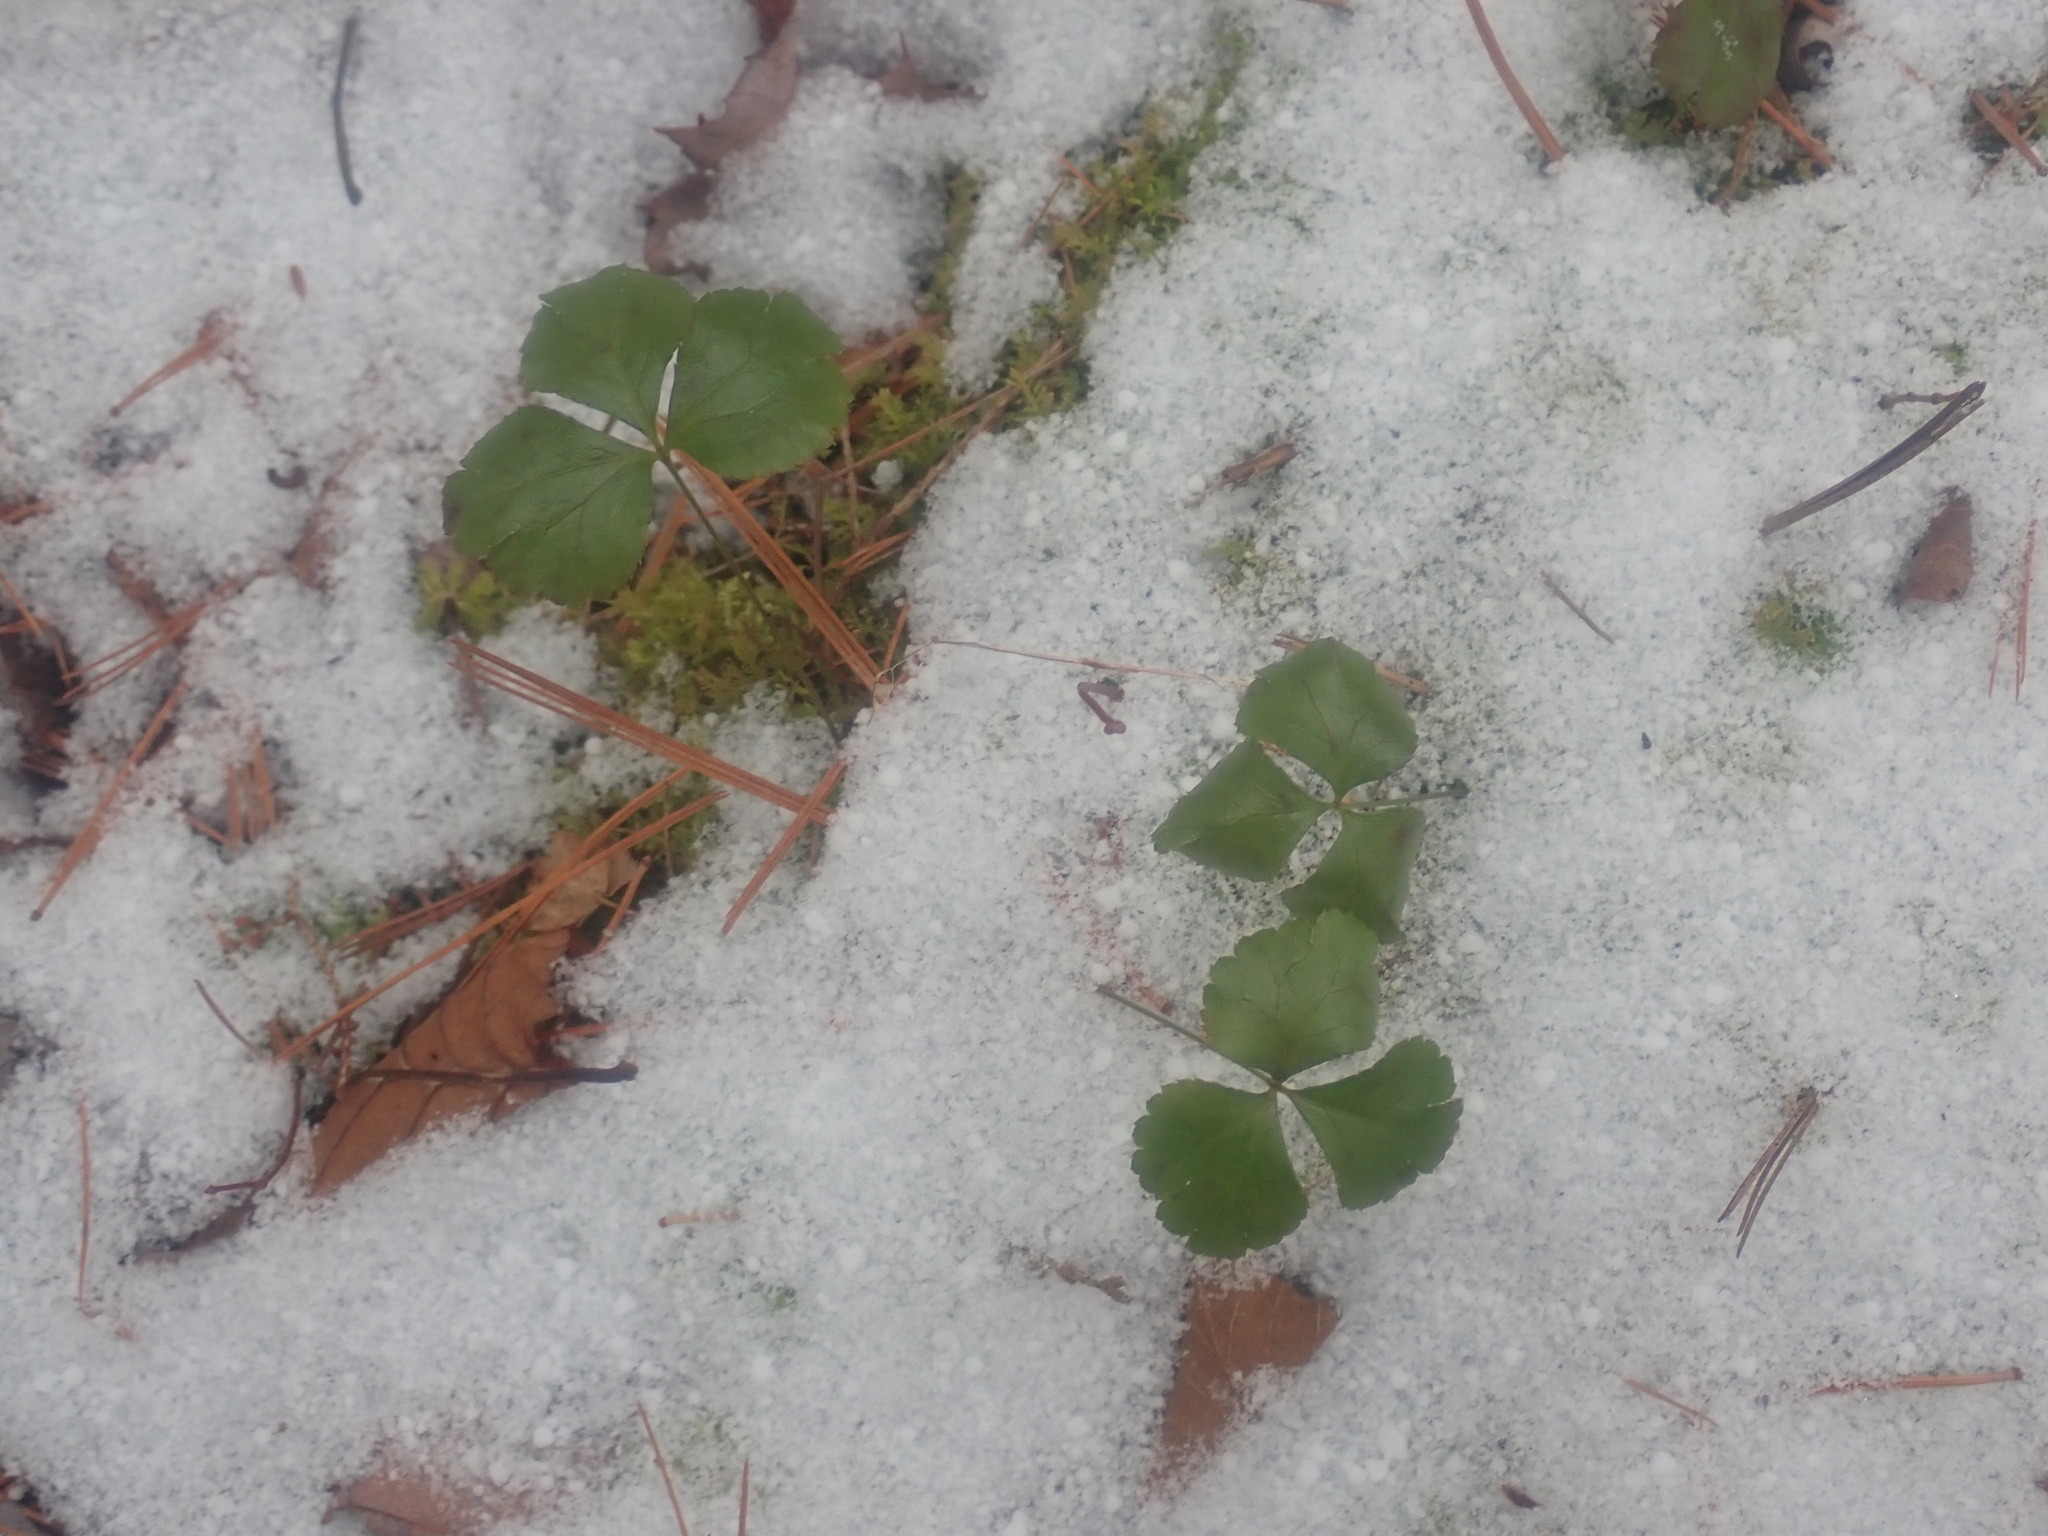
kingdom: Plantae
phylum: Tracheophyta
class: Magnoliopsida
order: Ranunculales
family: Ranunculaceae
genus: Coptis
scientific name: Coptis trifolia
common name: Canker-root
